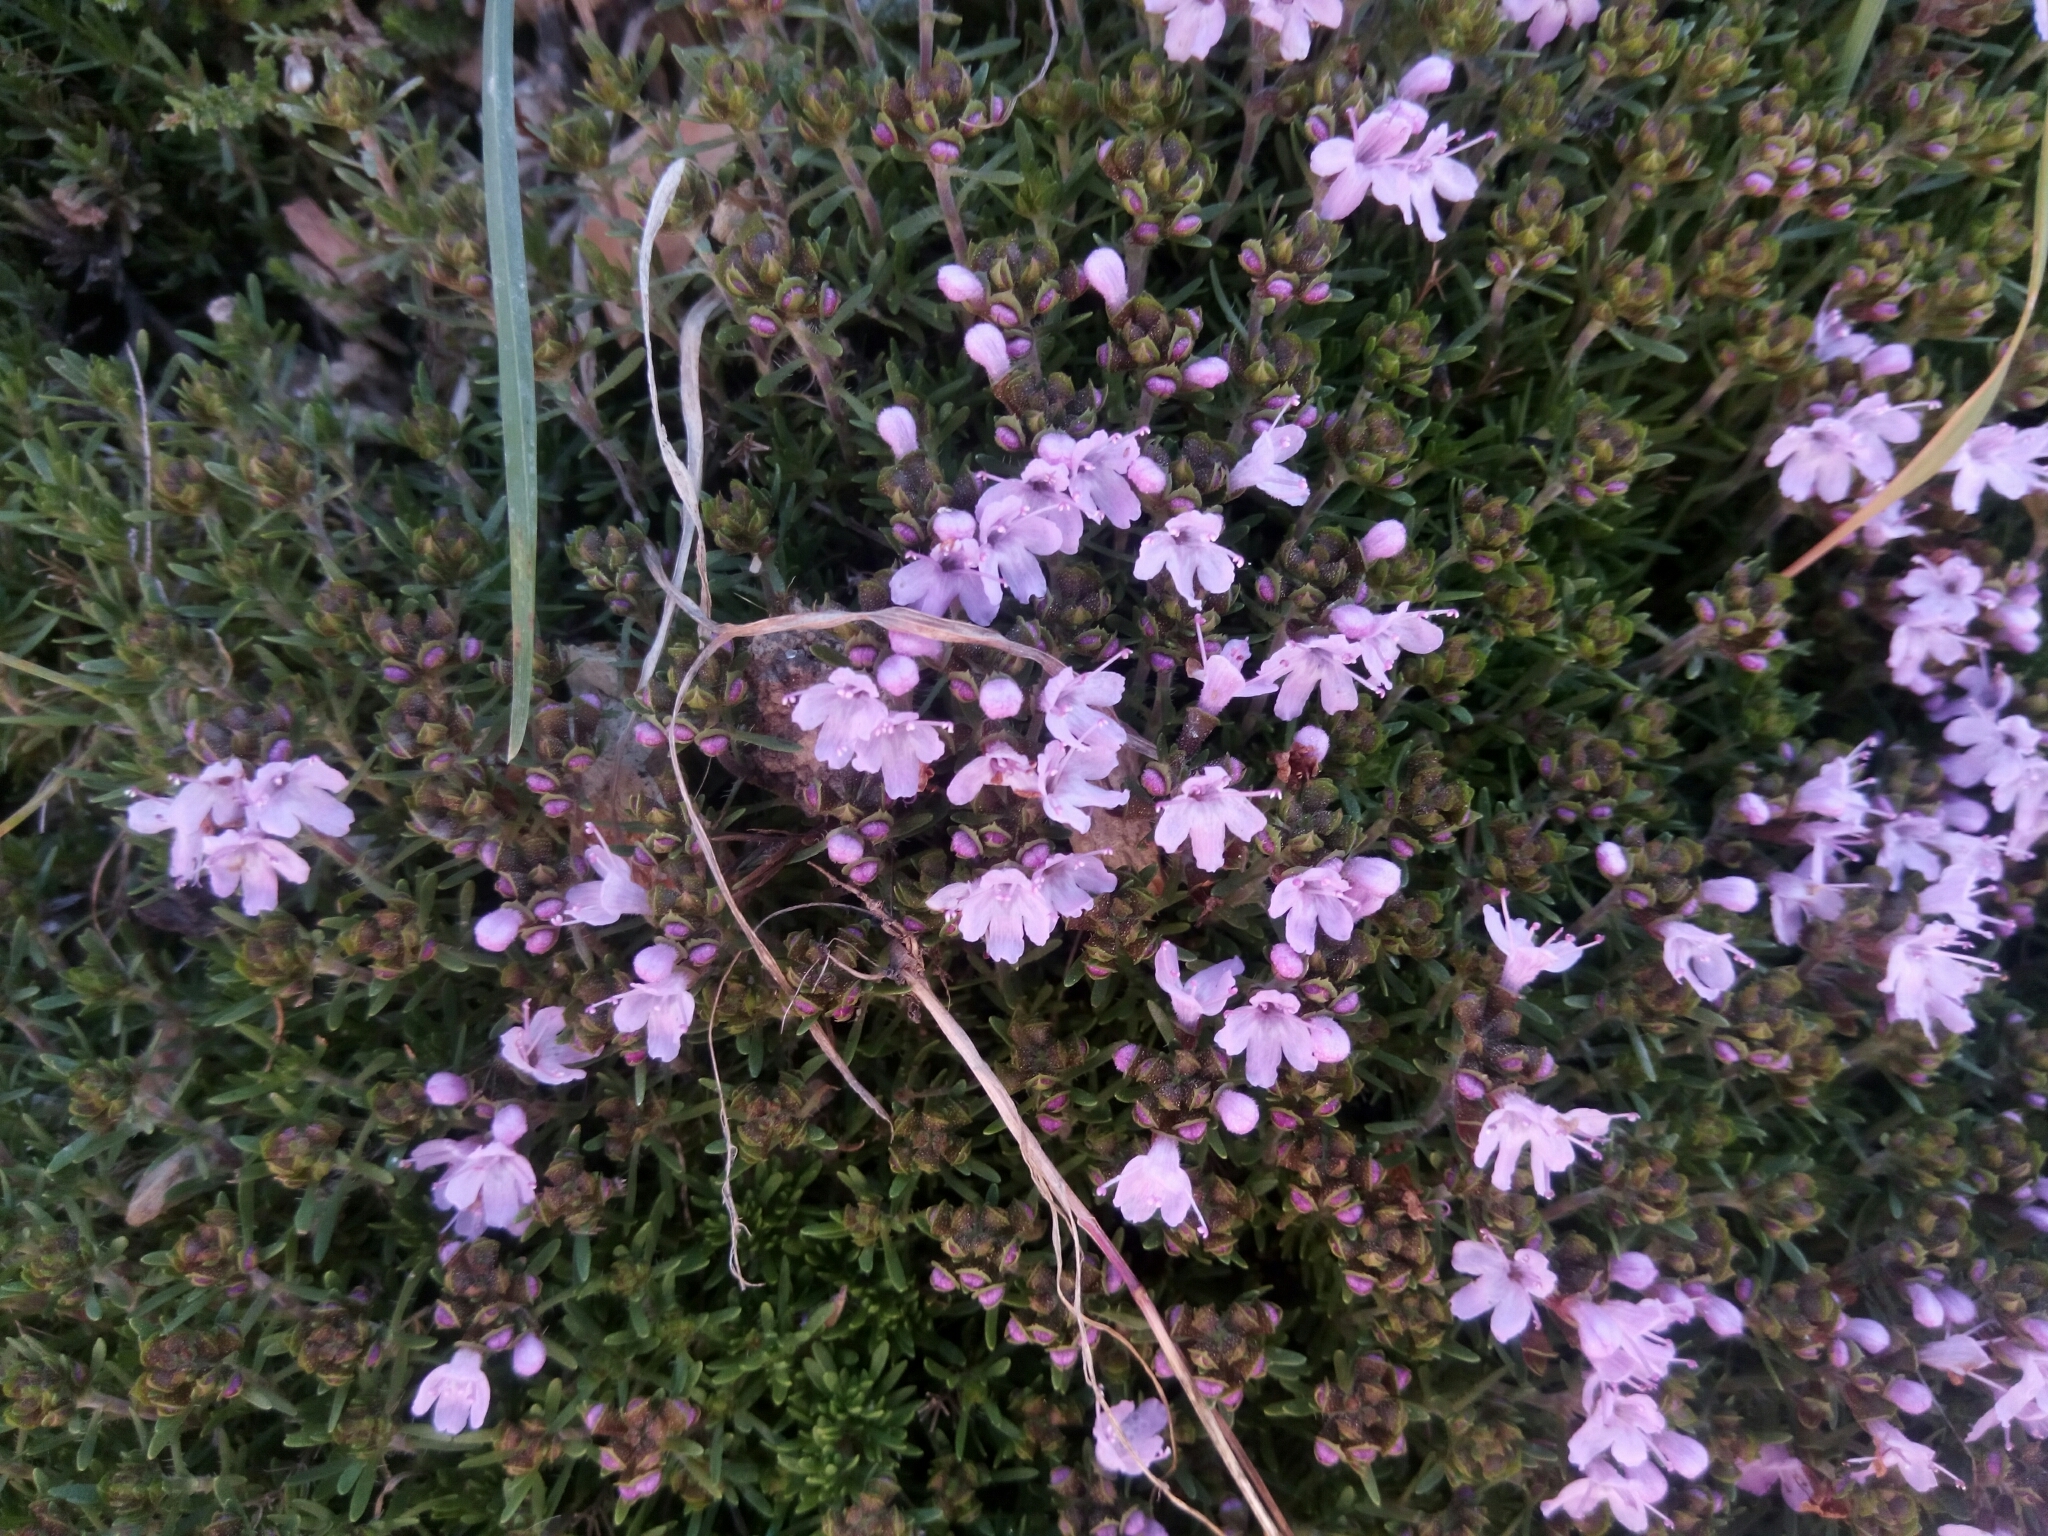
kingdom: Plantae
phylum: Tracheophyta
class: Magnoliopsida
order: Lamiales
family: Lamiaceae
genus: Thymus
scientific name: Thymus caespititius
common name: Azores thyme
